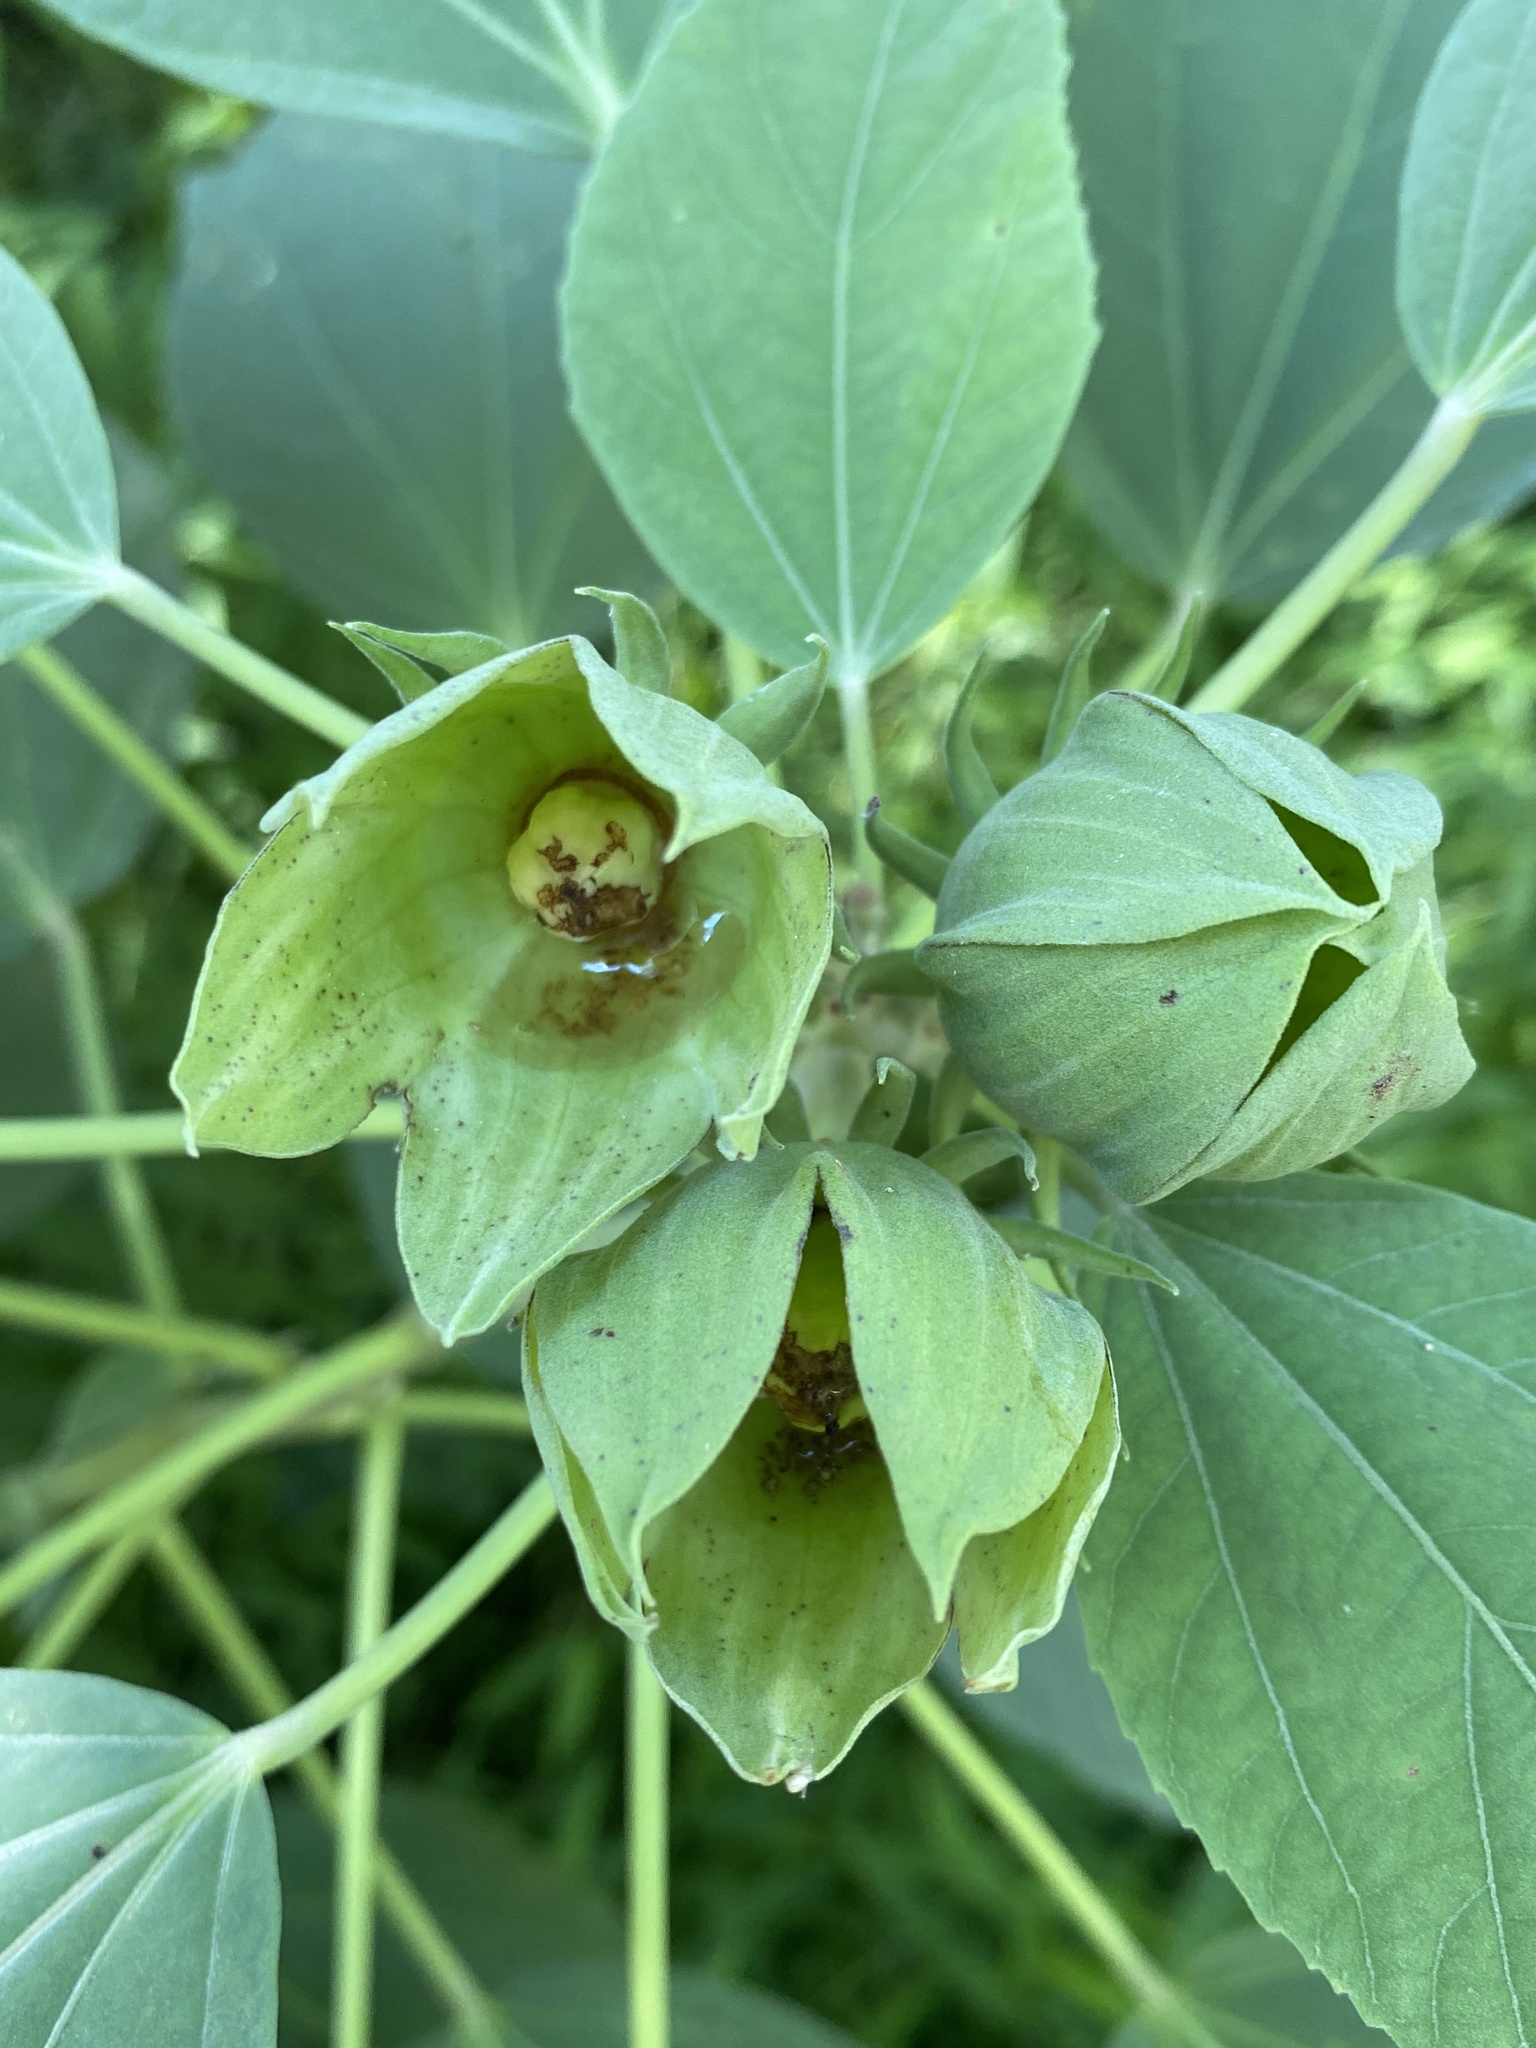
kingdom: Plantae
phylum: Tracheophyta
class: Magnoliopsida
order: Malvales
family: Malvaceae
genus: Hibiscus
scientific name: Hibiscus moscheutos
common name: Common rose-mallow
